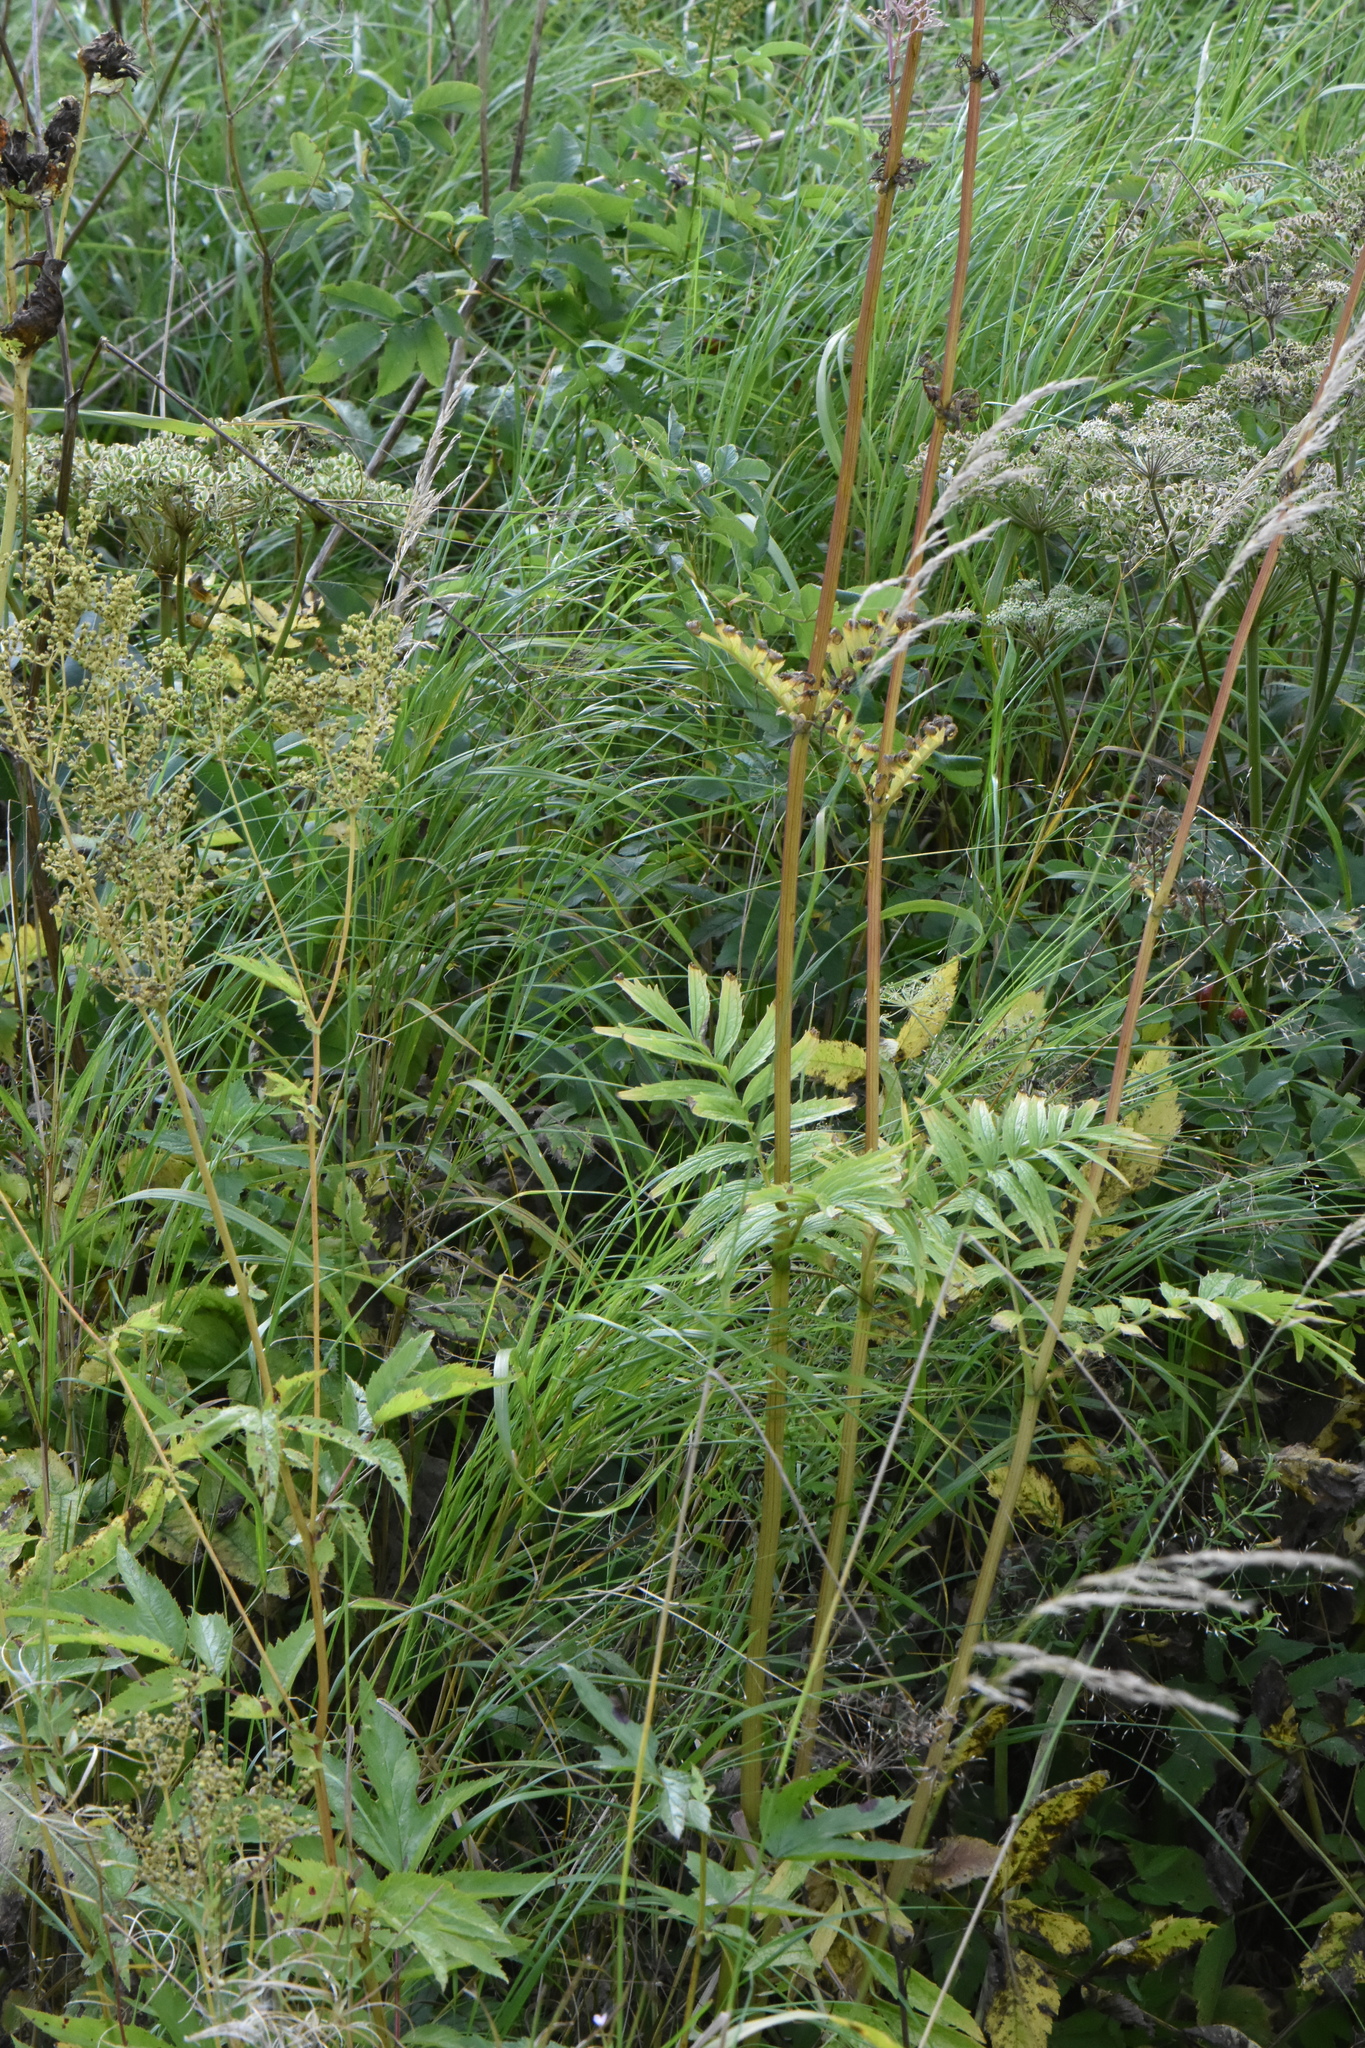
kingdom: Plantae
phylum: Tracheophyta
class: Magnoliopsida
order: Dipsacales
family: Caprifoliaceae
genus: Valeriana
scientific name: Valeriana officinalis
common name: Common valerian
